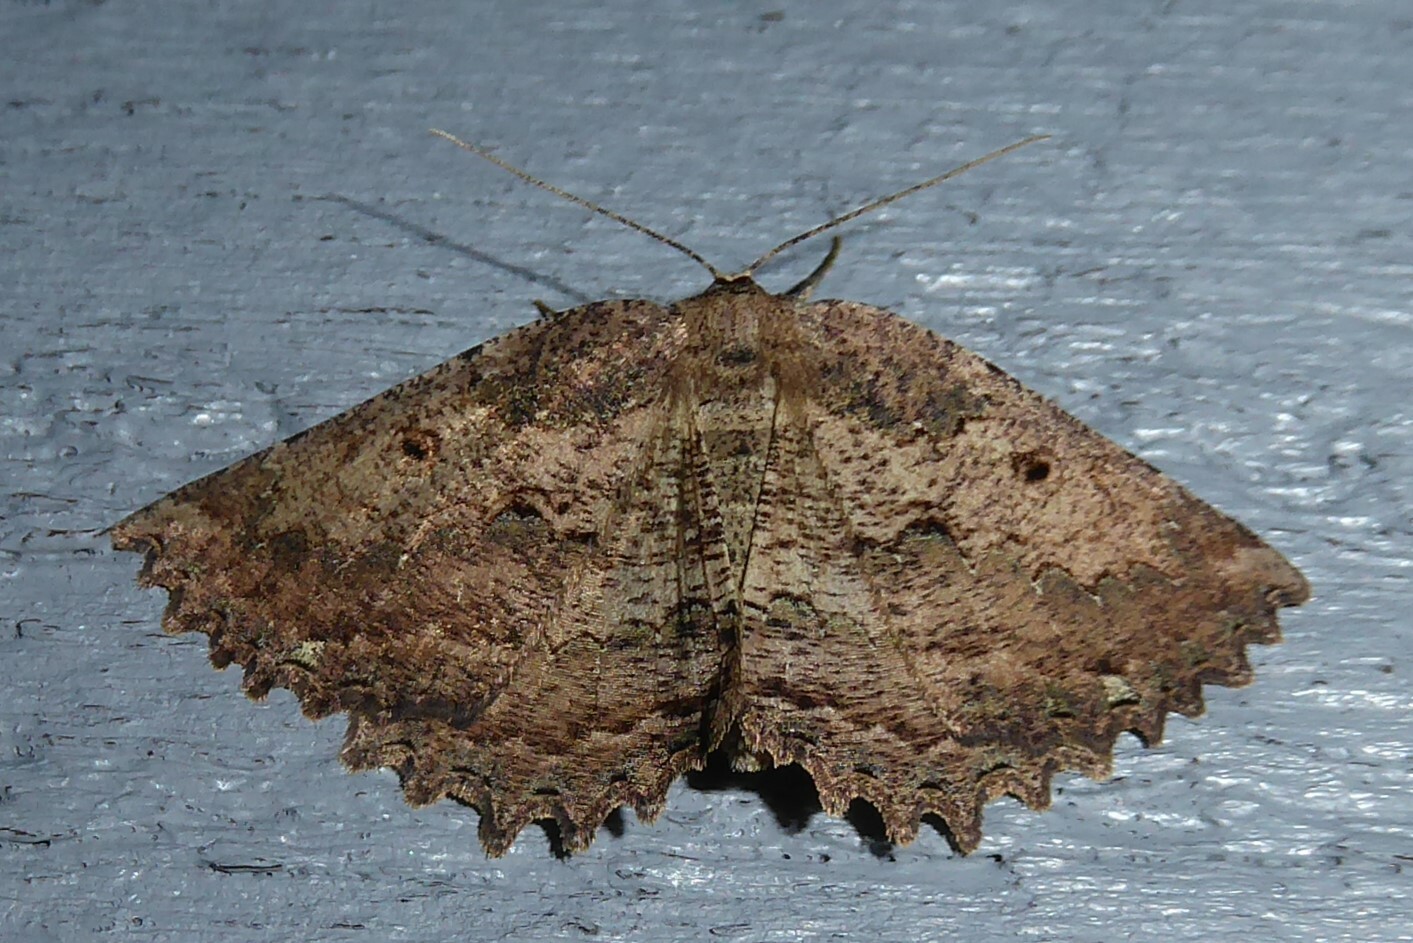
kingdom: Animalia
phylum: Arthropoda
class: Insecta
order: Lepidoptera
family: Geometridae
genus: Gellonia
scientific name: Gellonia pannularia
